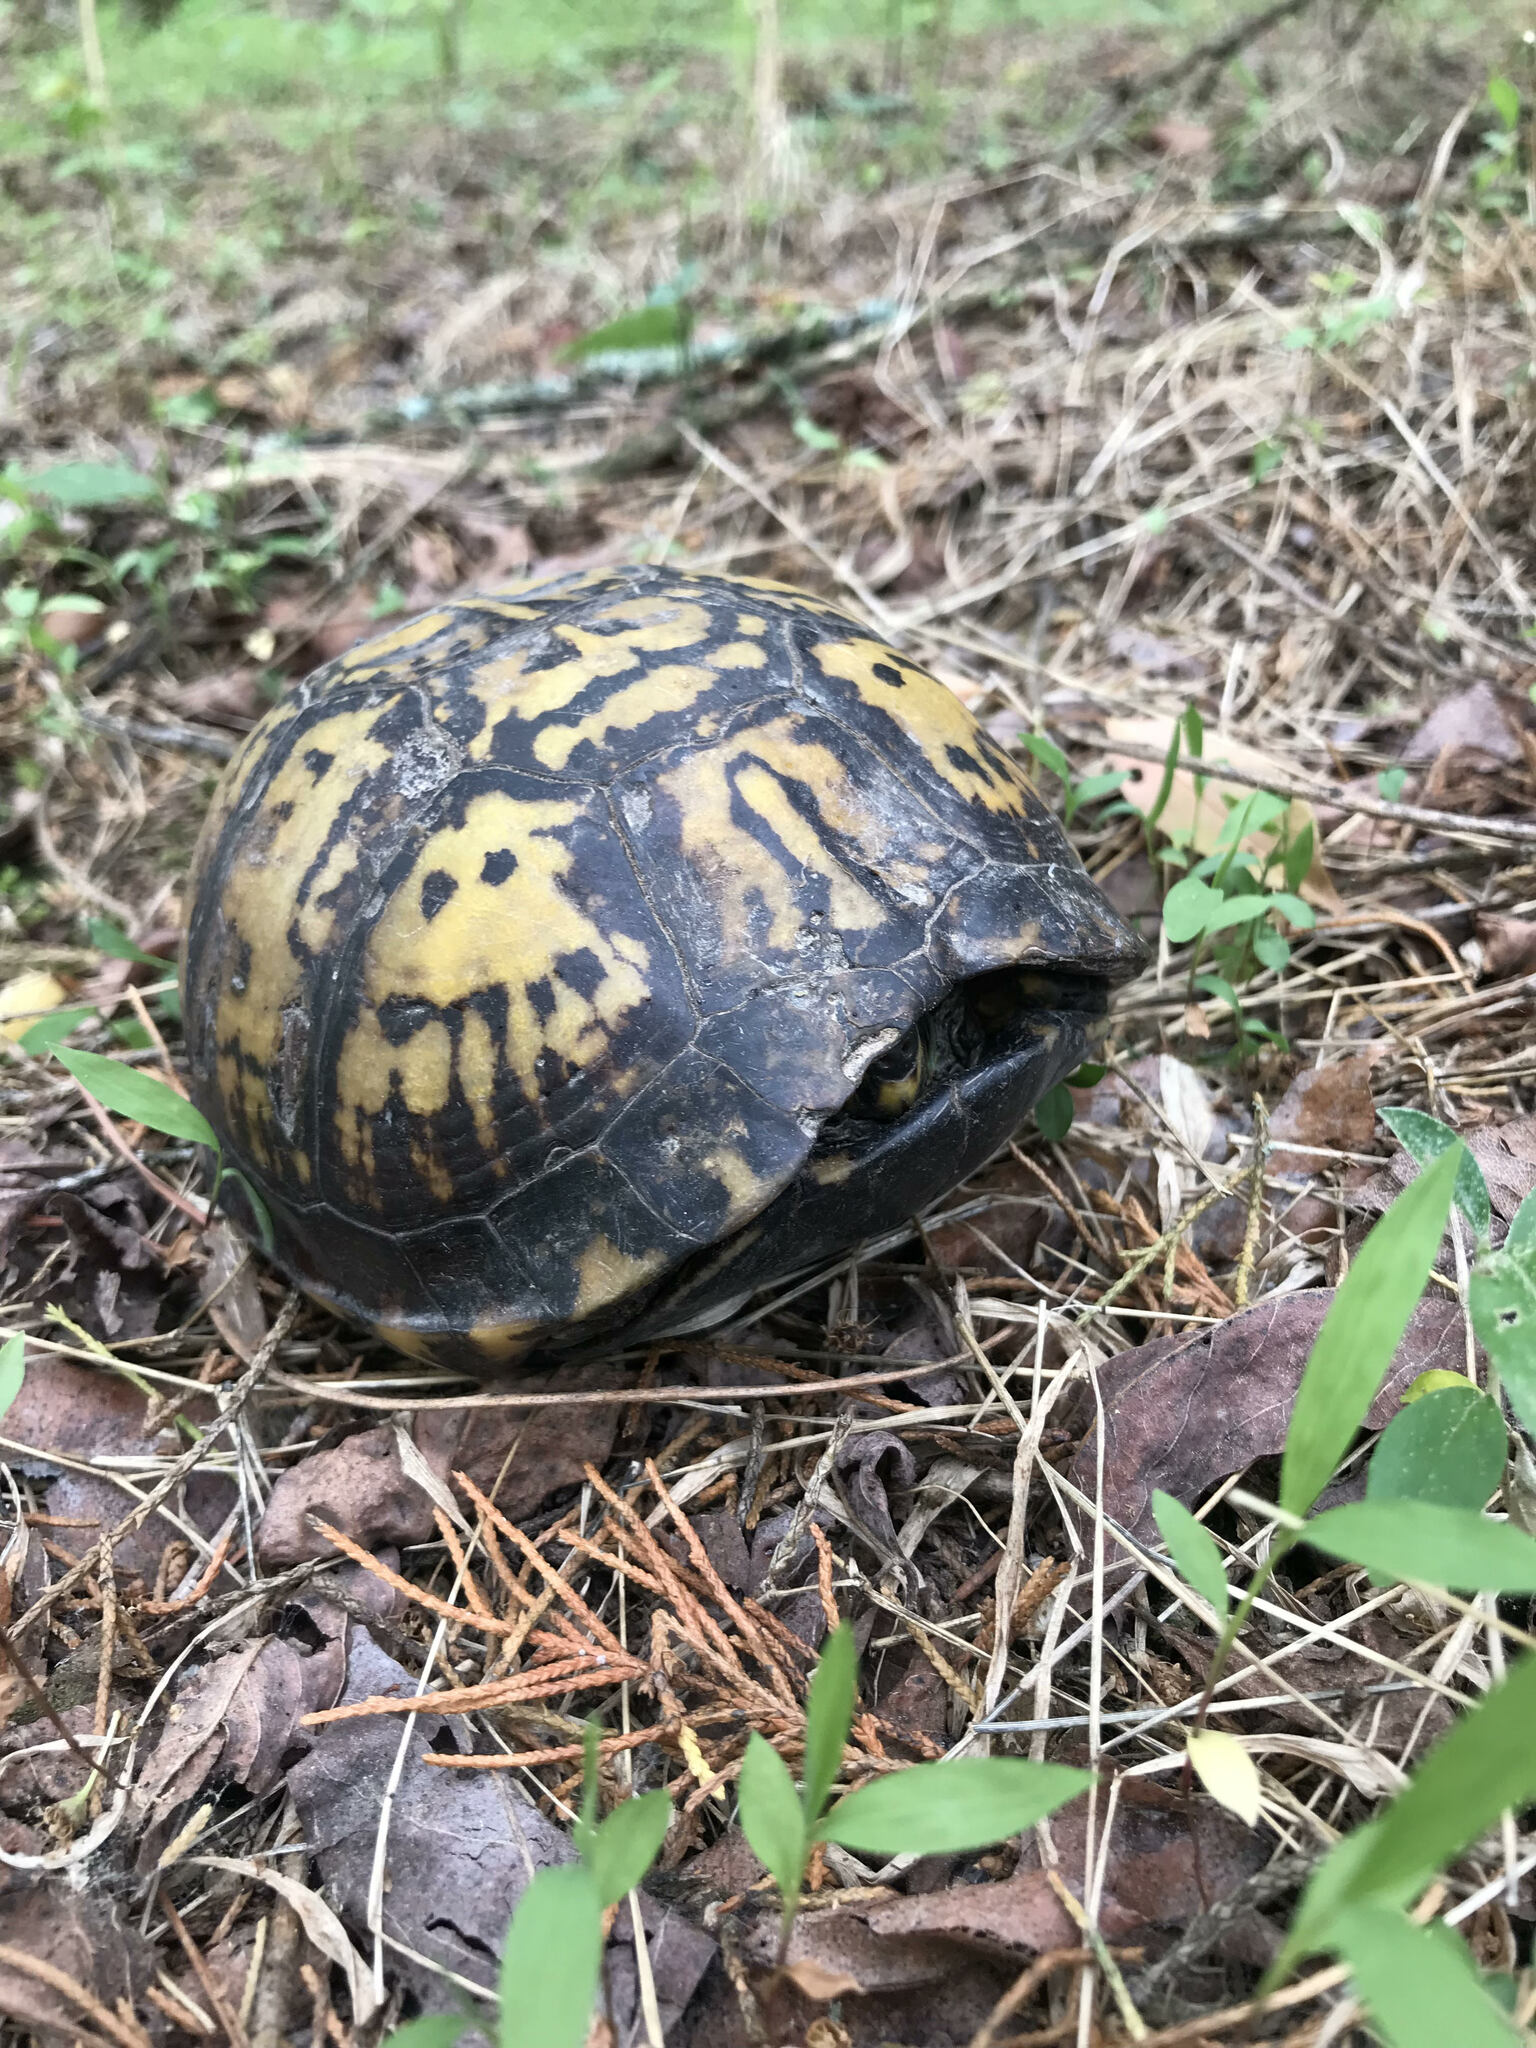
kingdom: Animalia
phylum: Chordata
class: Testudines
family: Emydidae
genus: Terrapene
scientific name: Terrapene carolina
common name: Common box turtle
